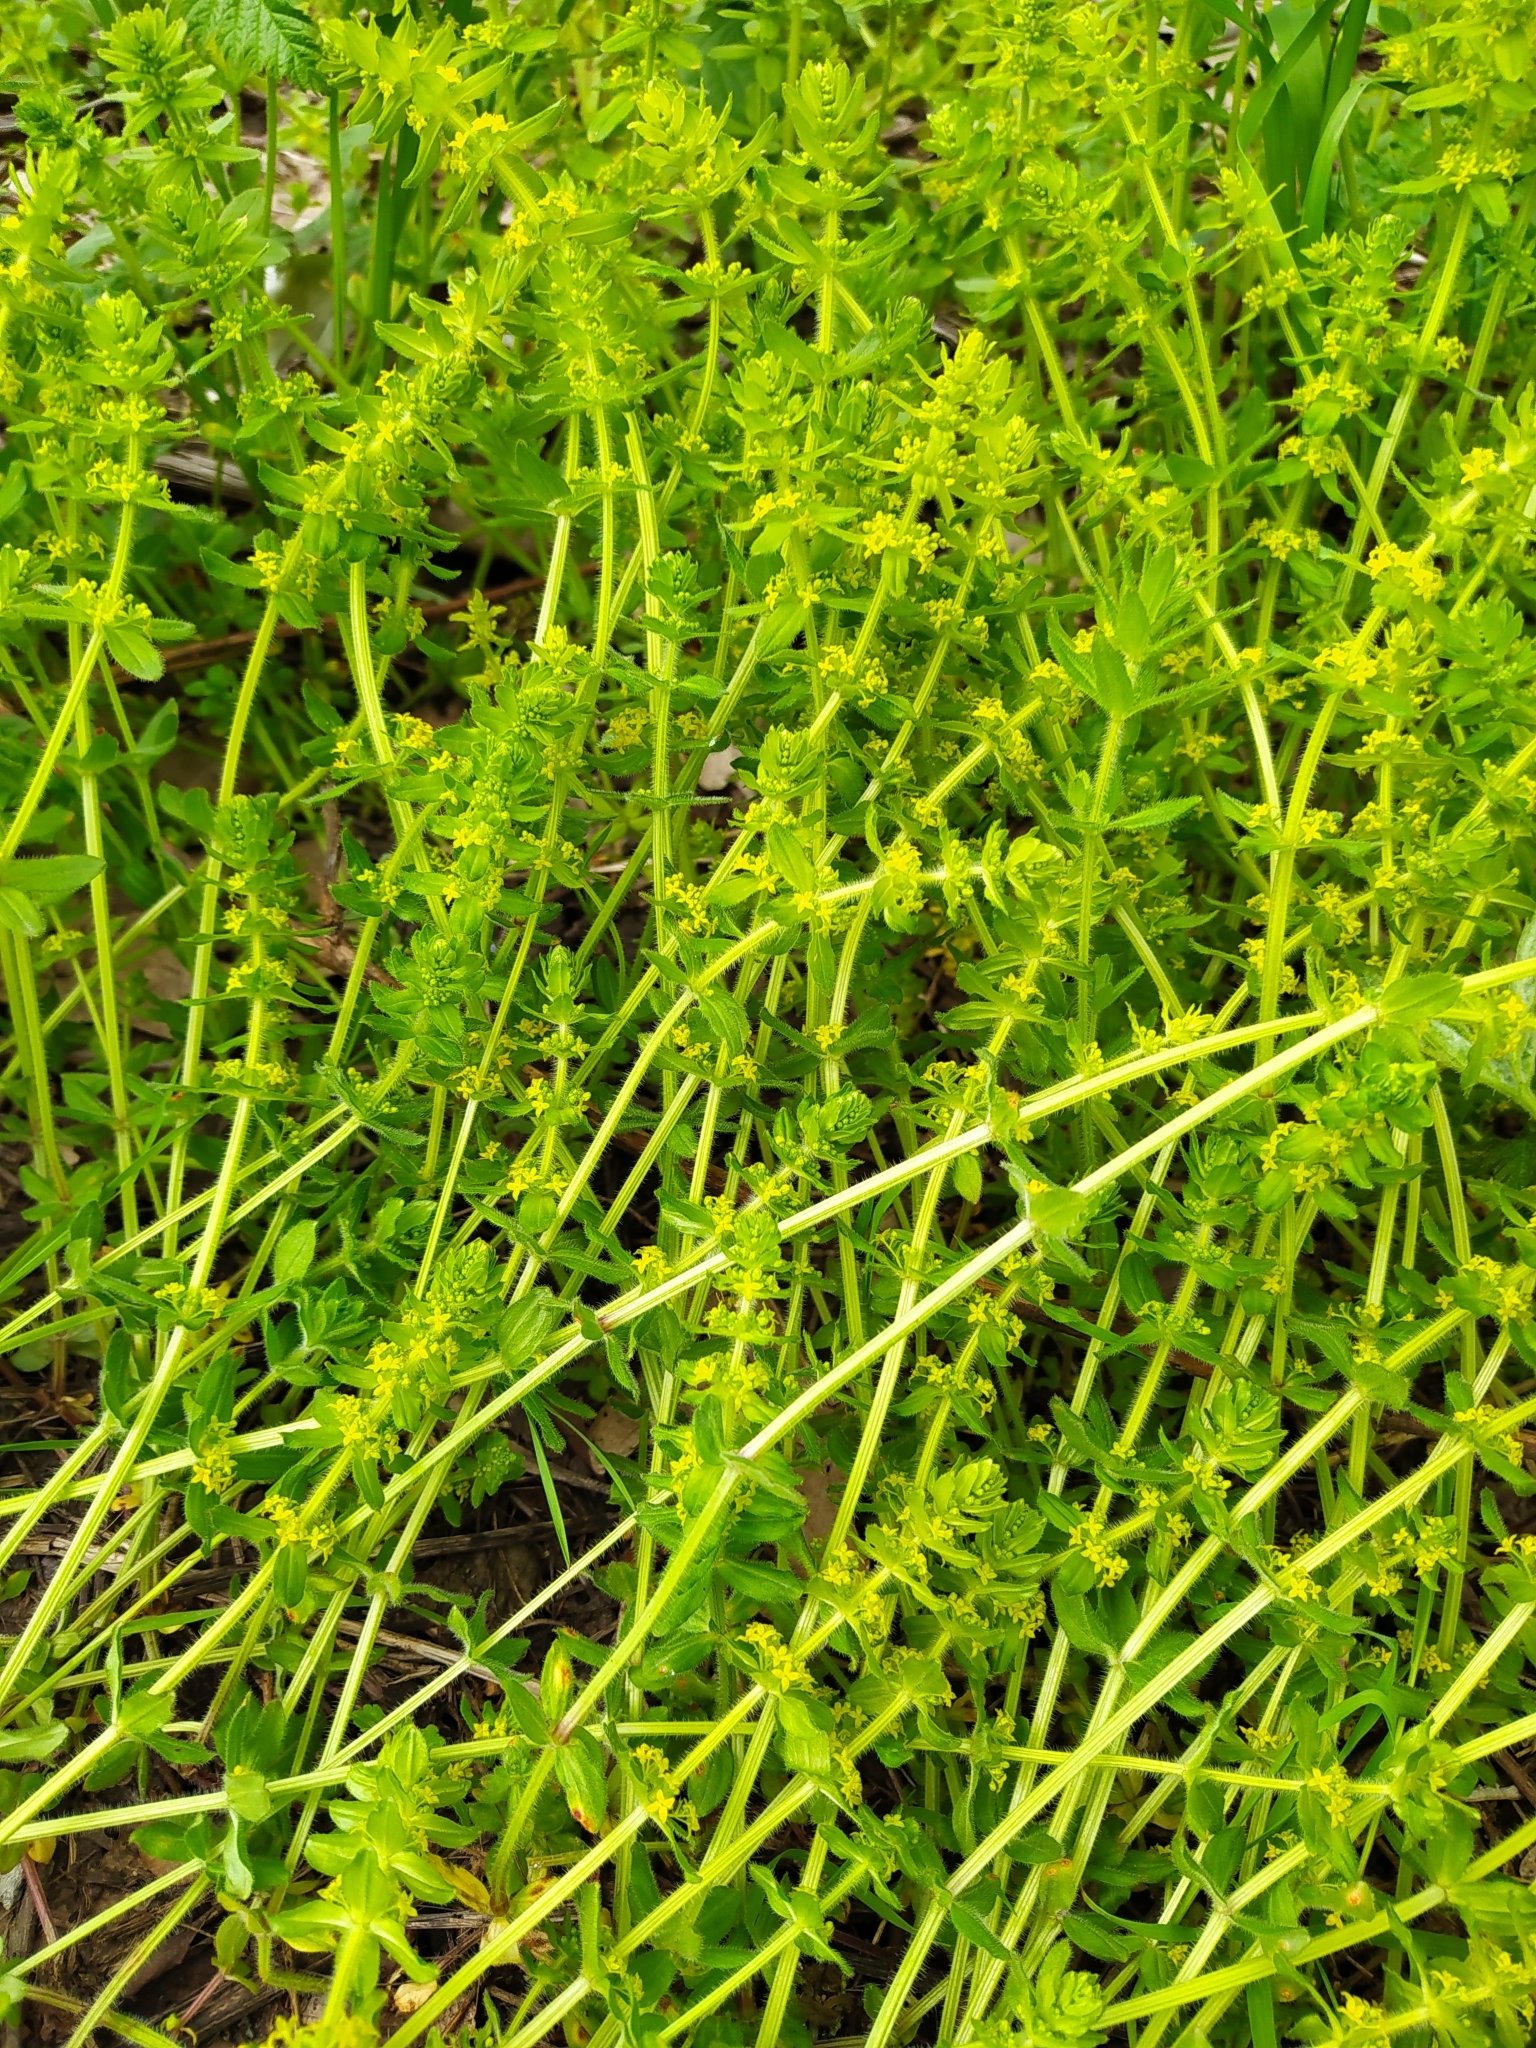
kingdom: Plantae
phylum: Tracheophyta
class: Magnoliopsida
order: Gentianales
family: Rubiaceae
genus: Cruciata
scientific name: Cruciata laevipes
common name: Crosswort
